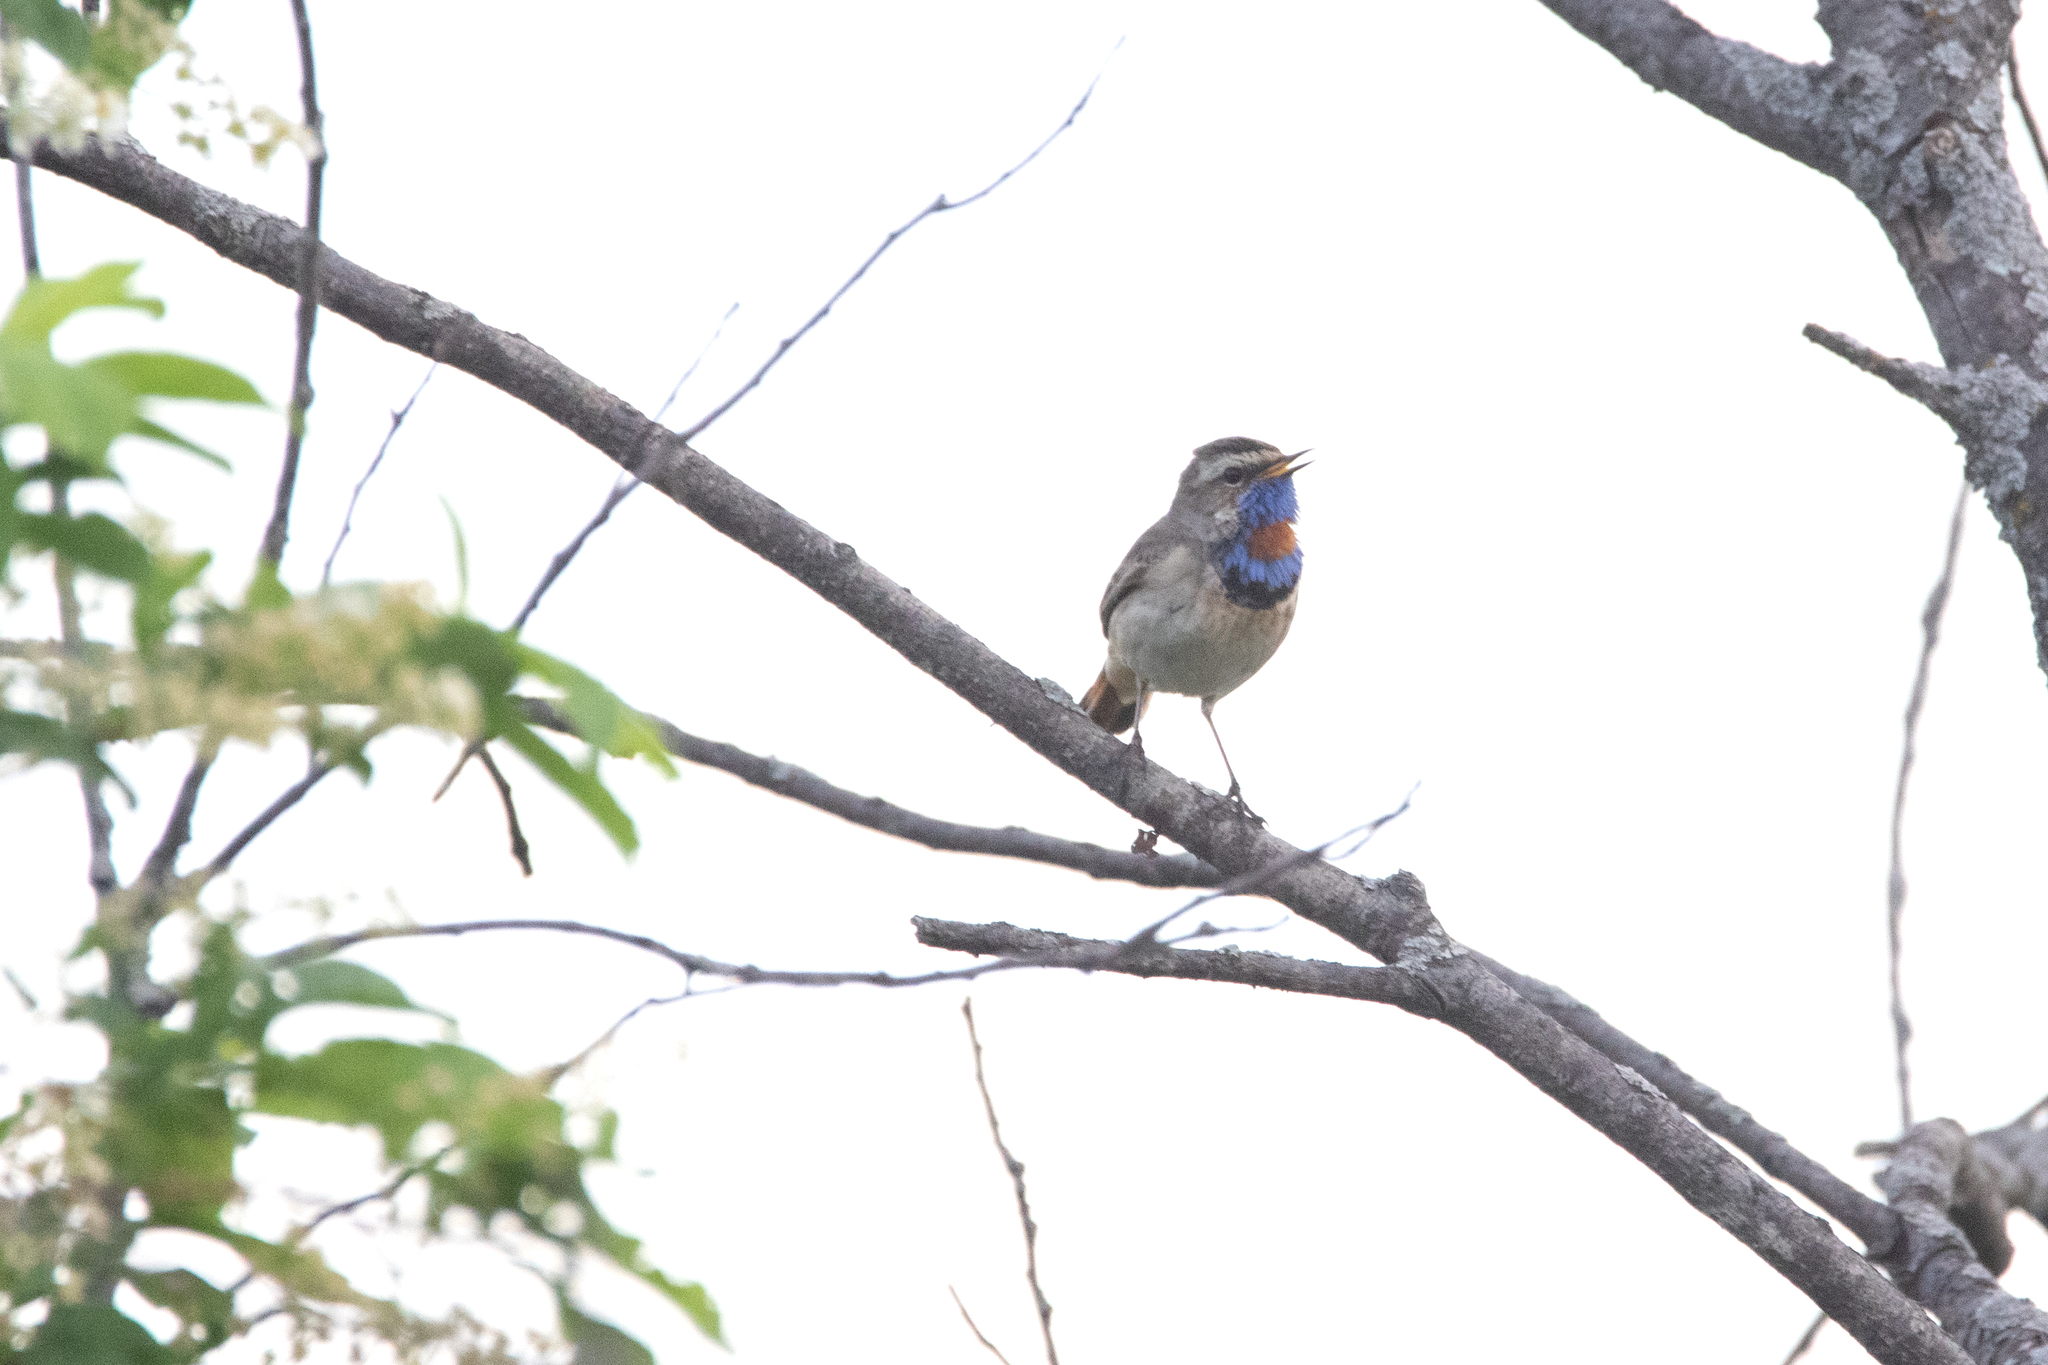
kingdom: Animalia
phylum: Chordata
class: Aves
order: Passeriformes
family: Muscicapidae
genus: Luscinia
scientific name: Luscinia svecica
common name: Bluethroat
